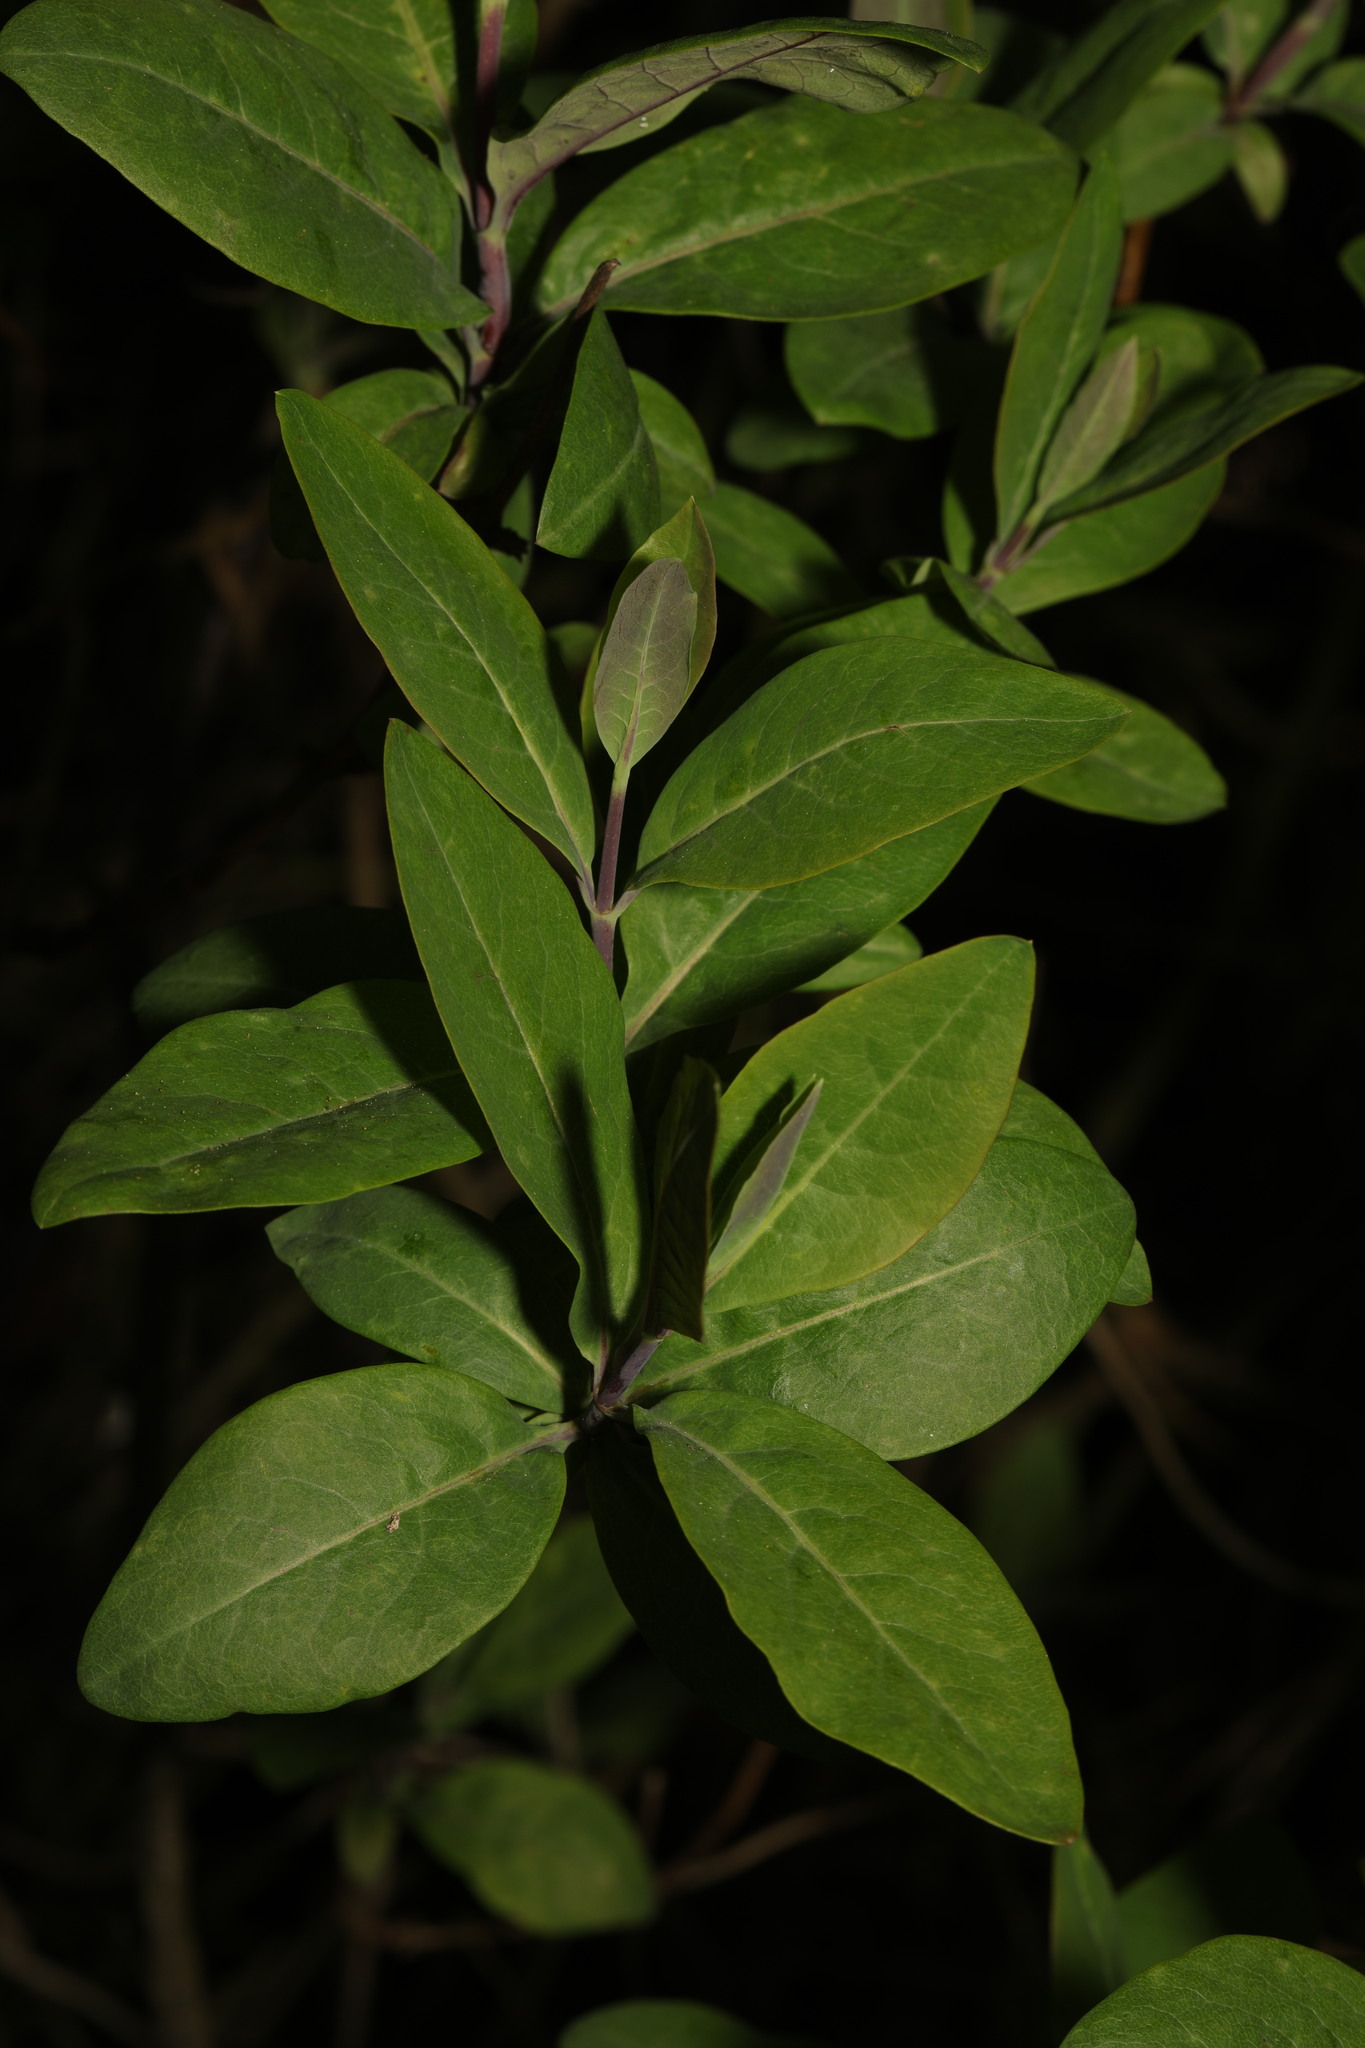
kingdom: Plantae
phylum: Tracheophyta
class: Magnoliopsida
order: Dipsacales
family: Caprifoliaceae
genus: Lonicera
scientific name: Lonicera periclymenum
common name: European honeysuckle
